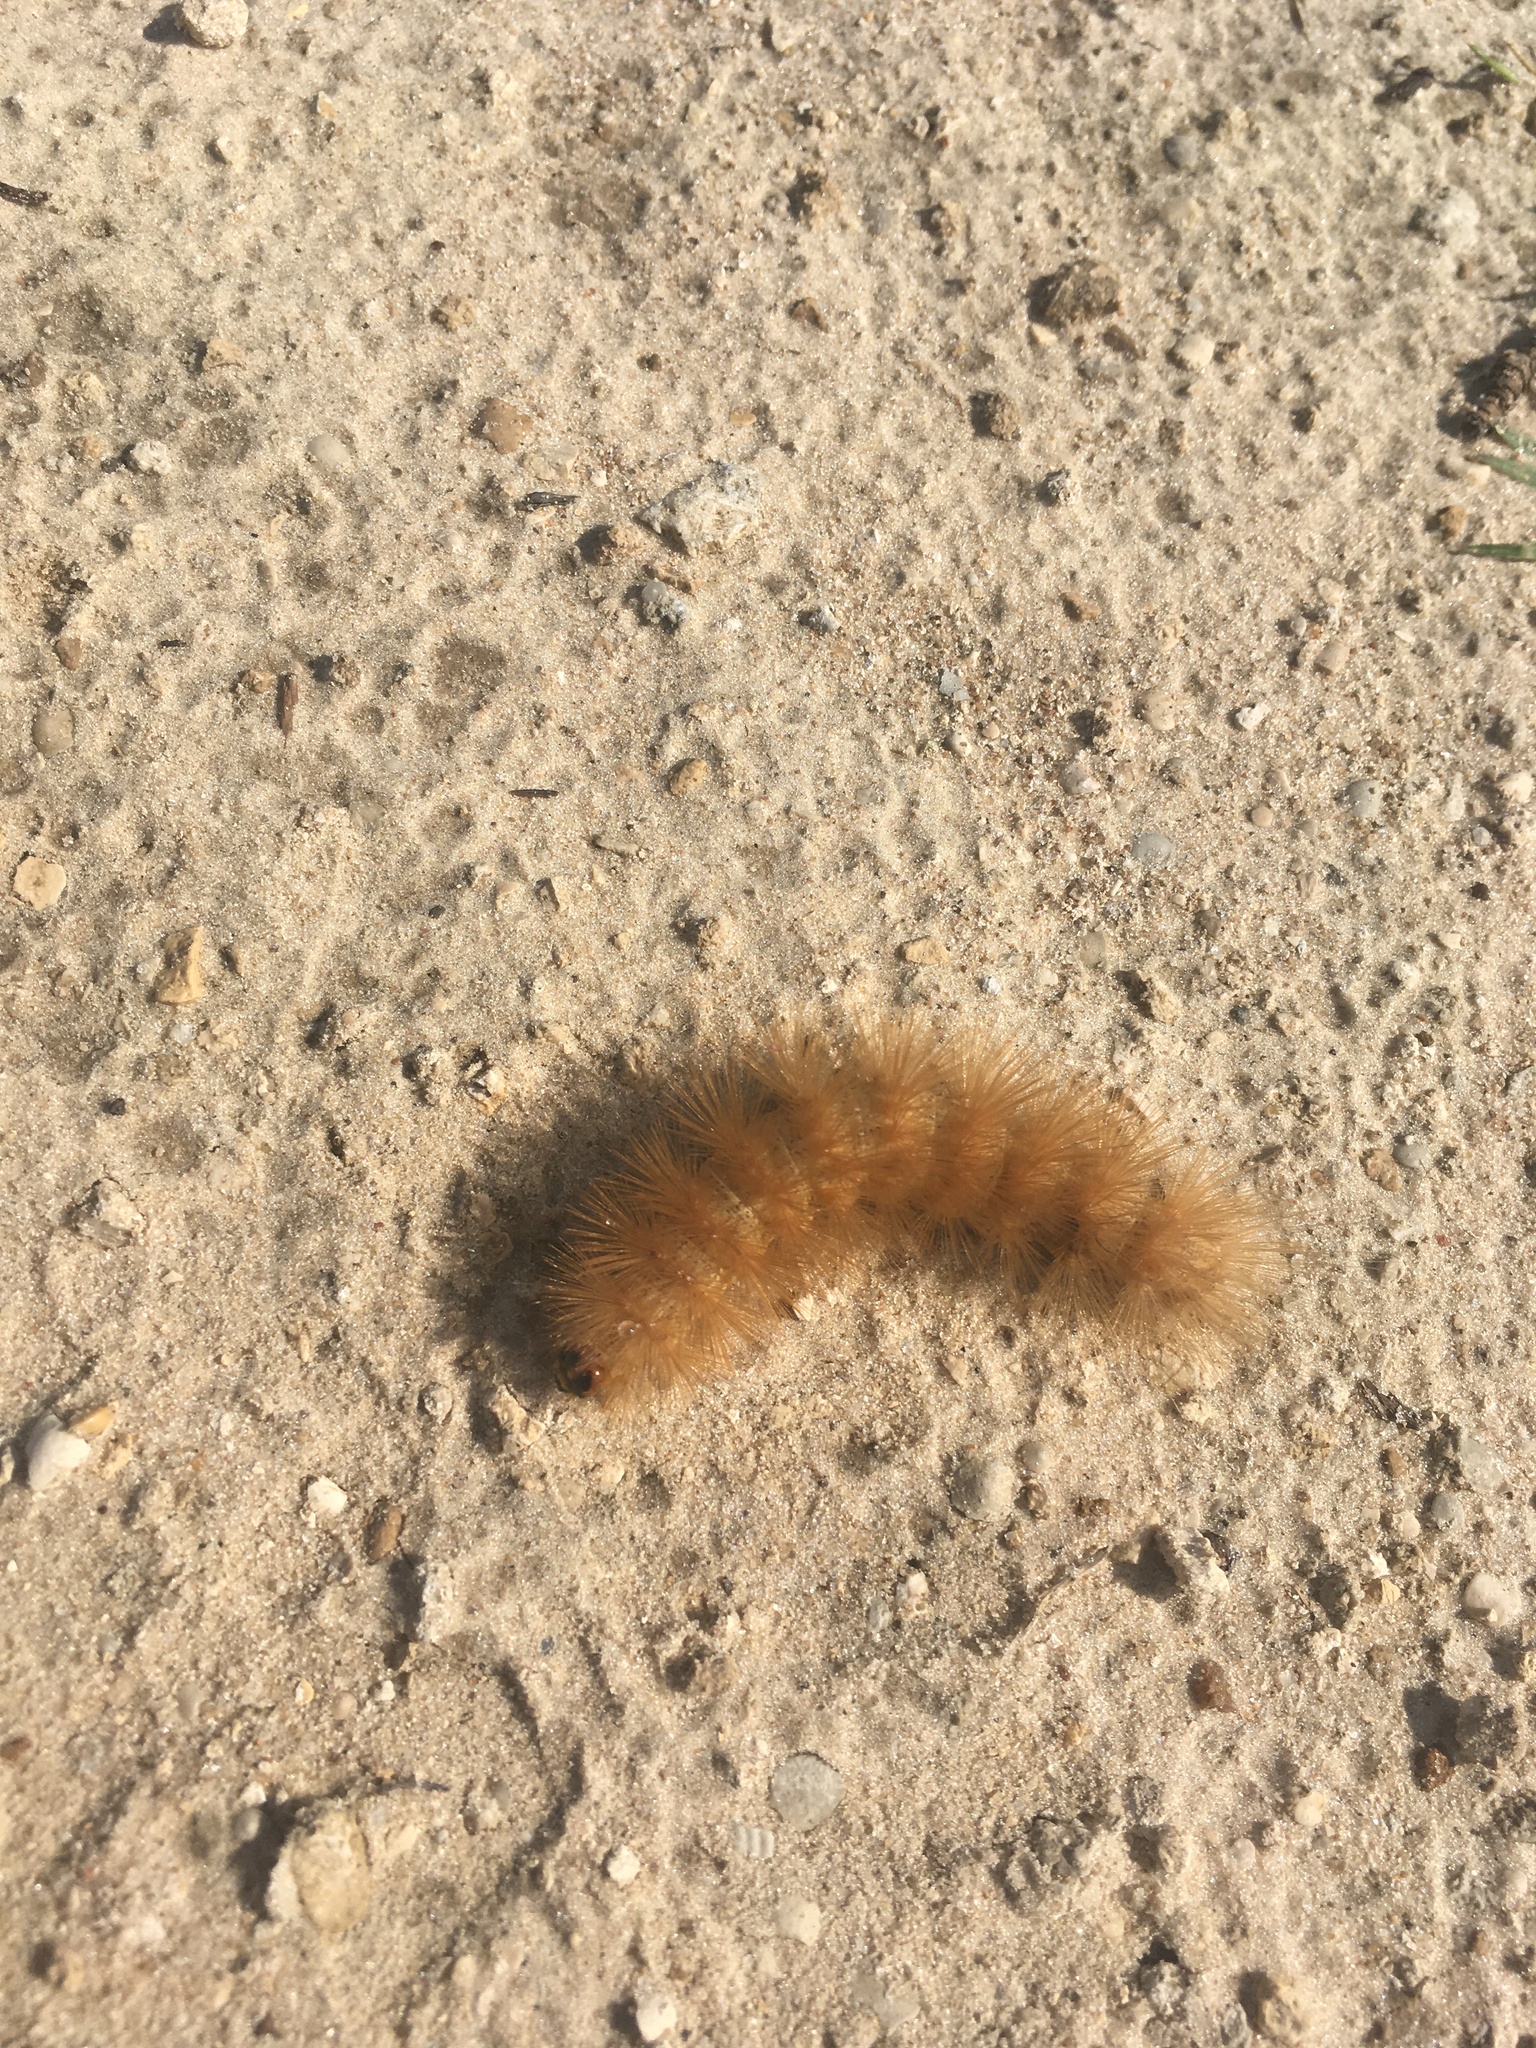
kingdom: Animalia
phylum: Arthropoda
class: Insecta
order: Lepidoptera
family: Erebidae
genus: Estigmene
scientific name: Estigmene acrea
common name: Salt marsh moth
